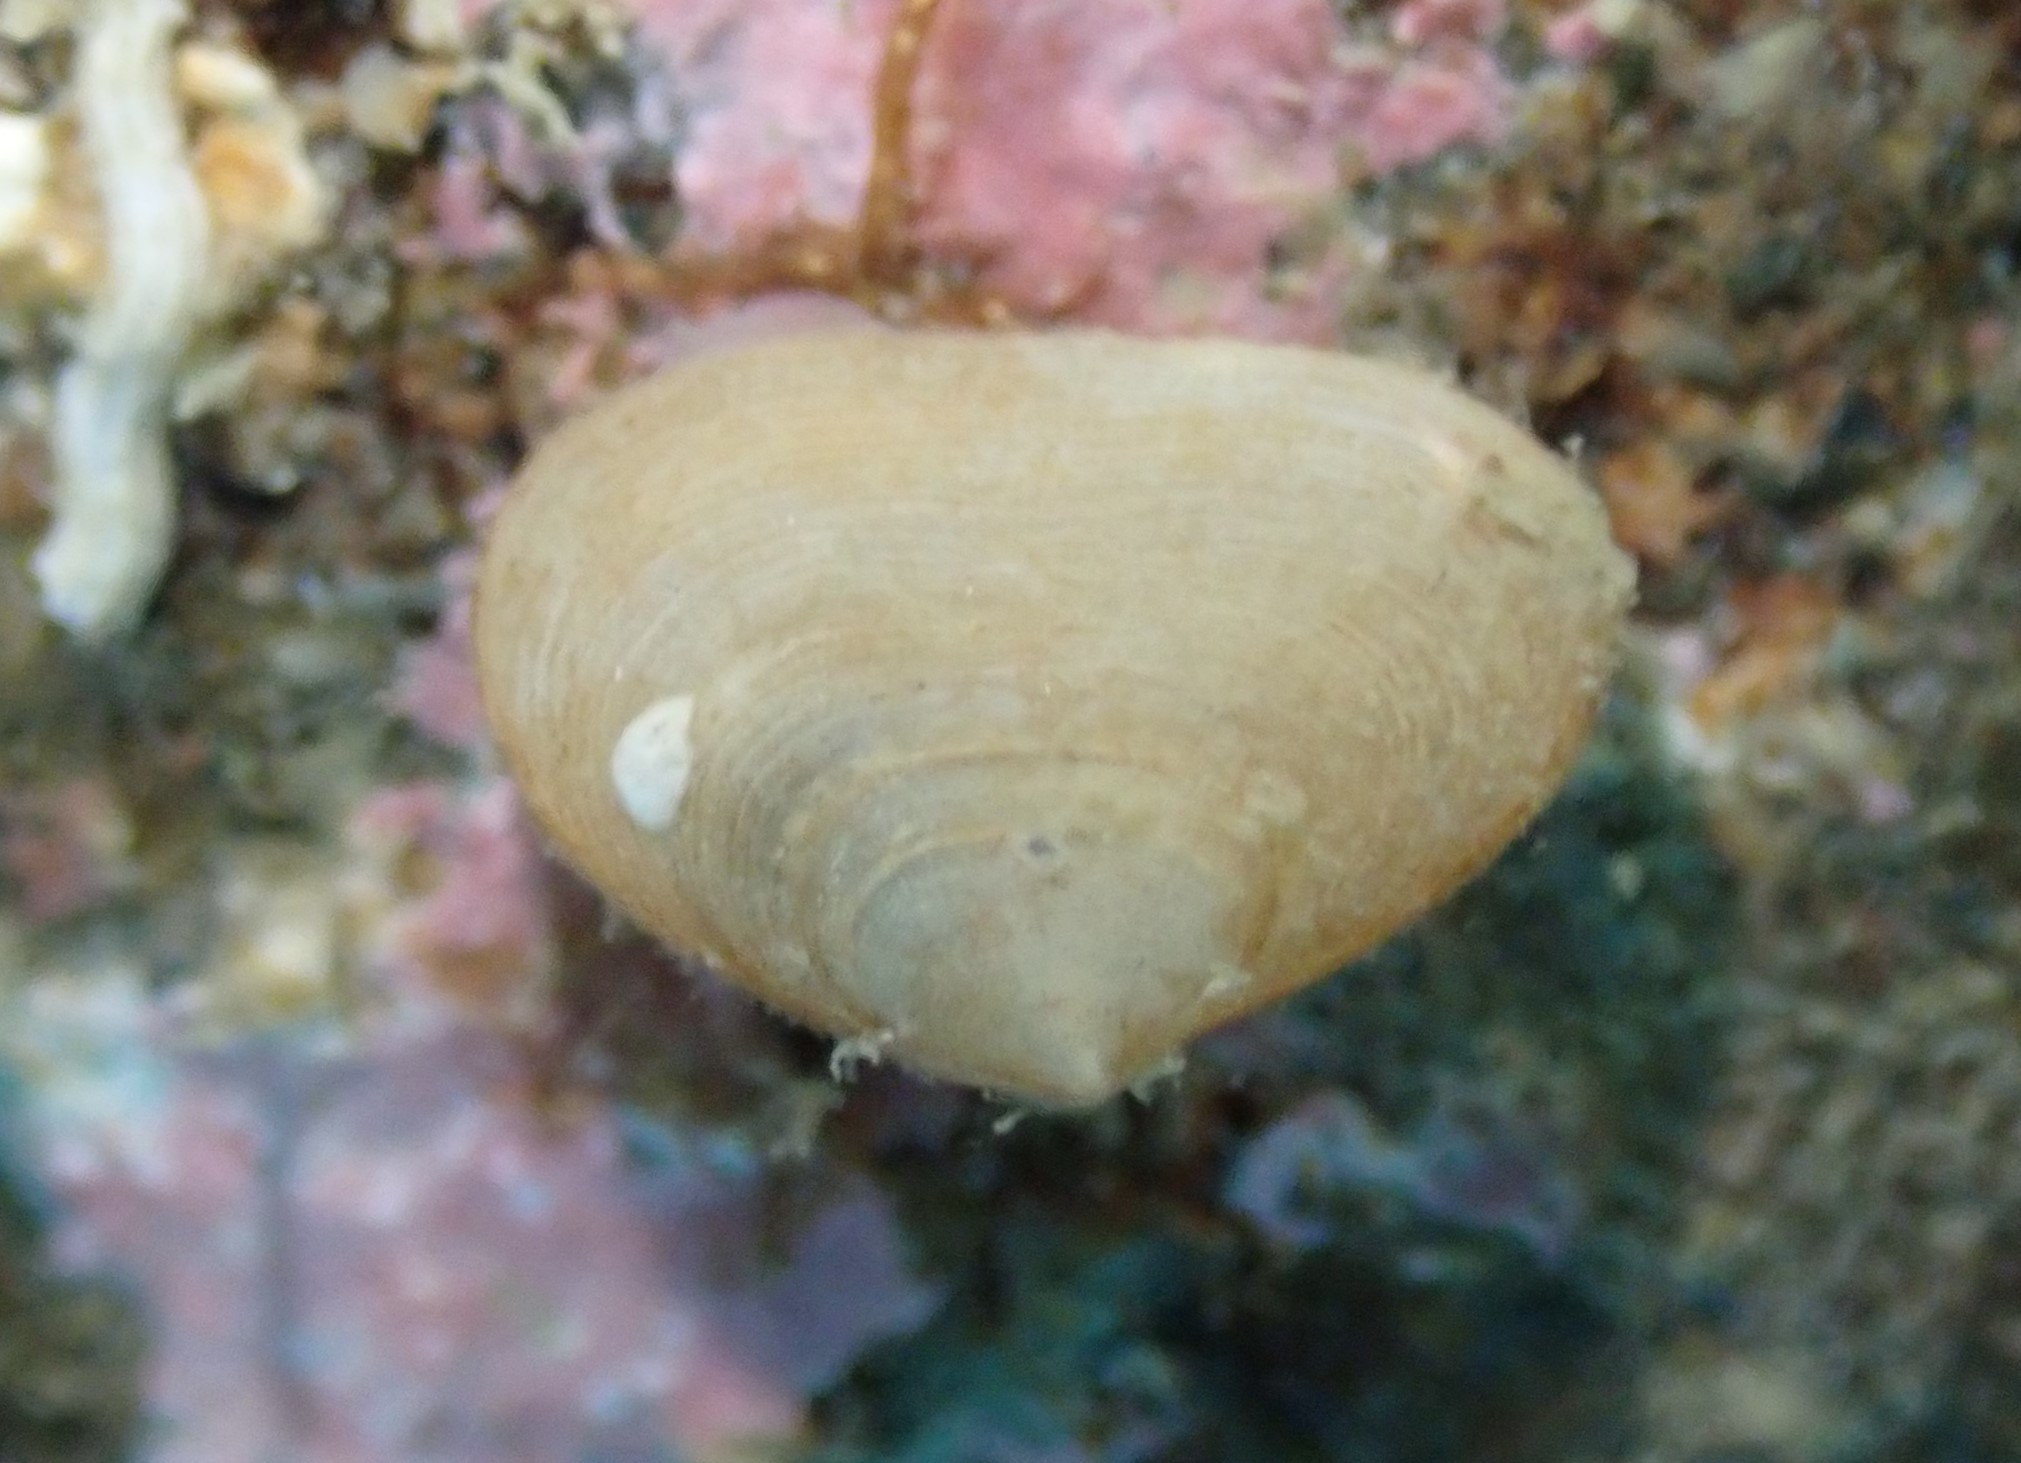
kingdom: Animalia
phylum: Mollusca
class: Bivalvia
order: Galeommatida
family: Lasaeidae
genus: Borniola
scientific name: Borniola reniformis
